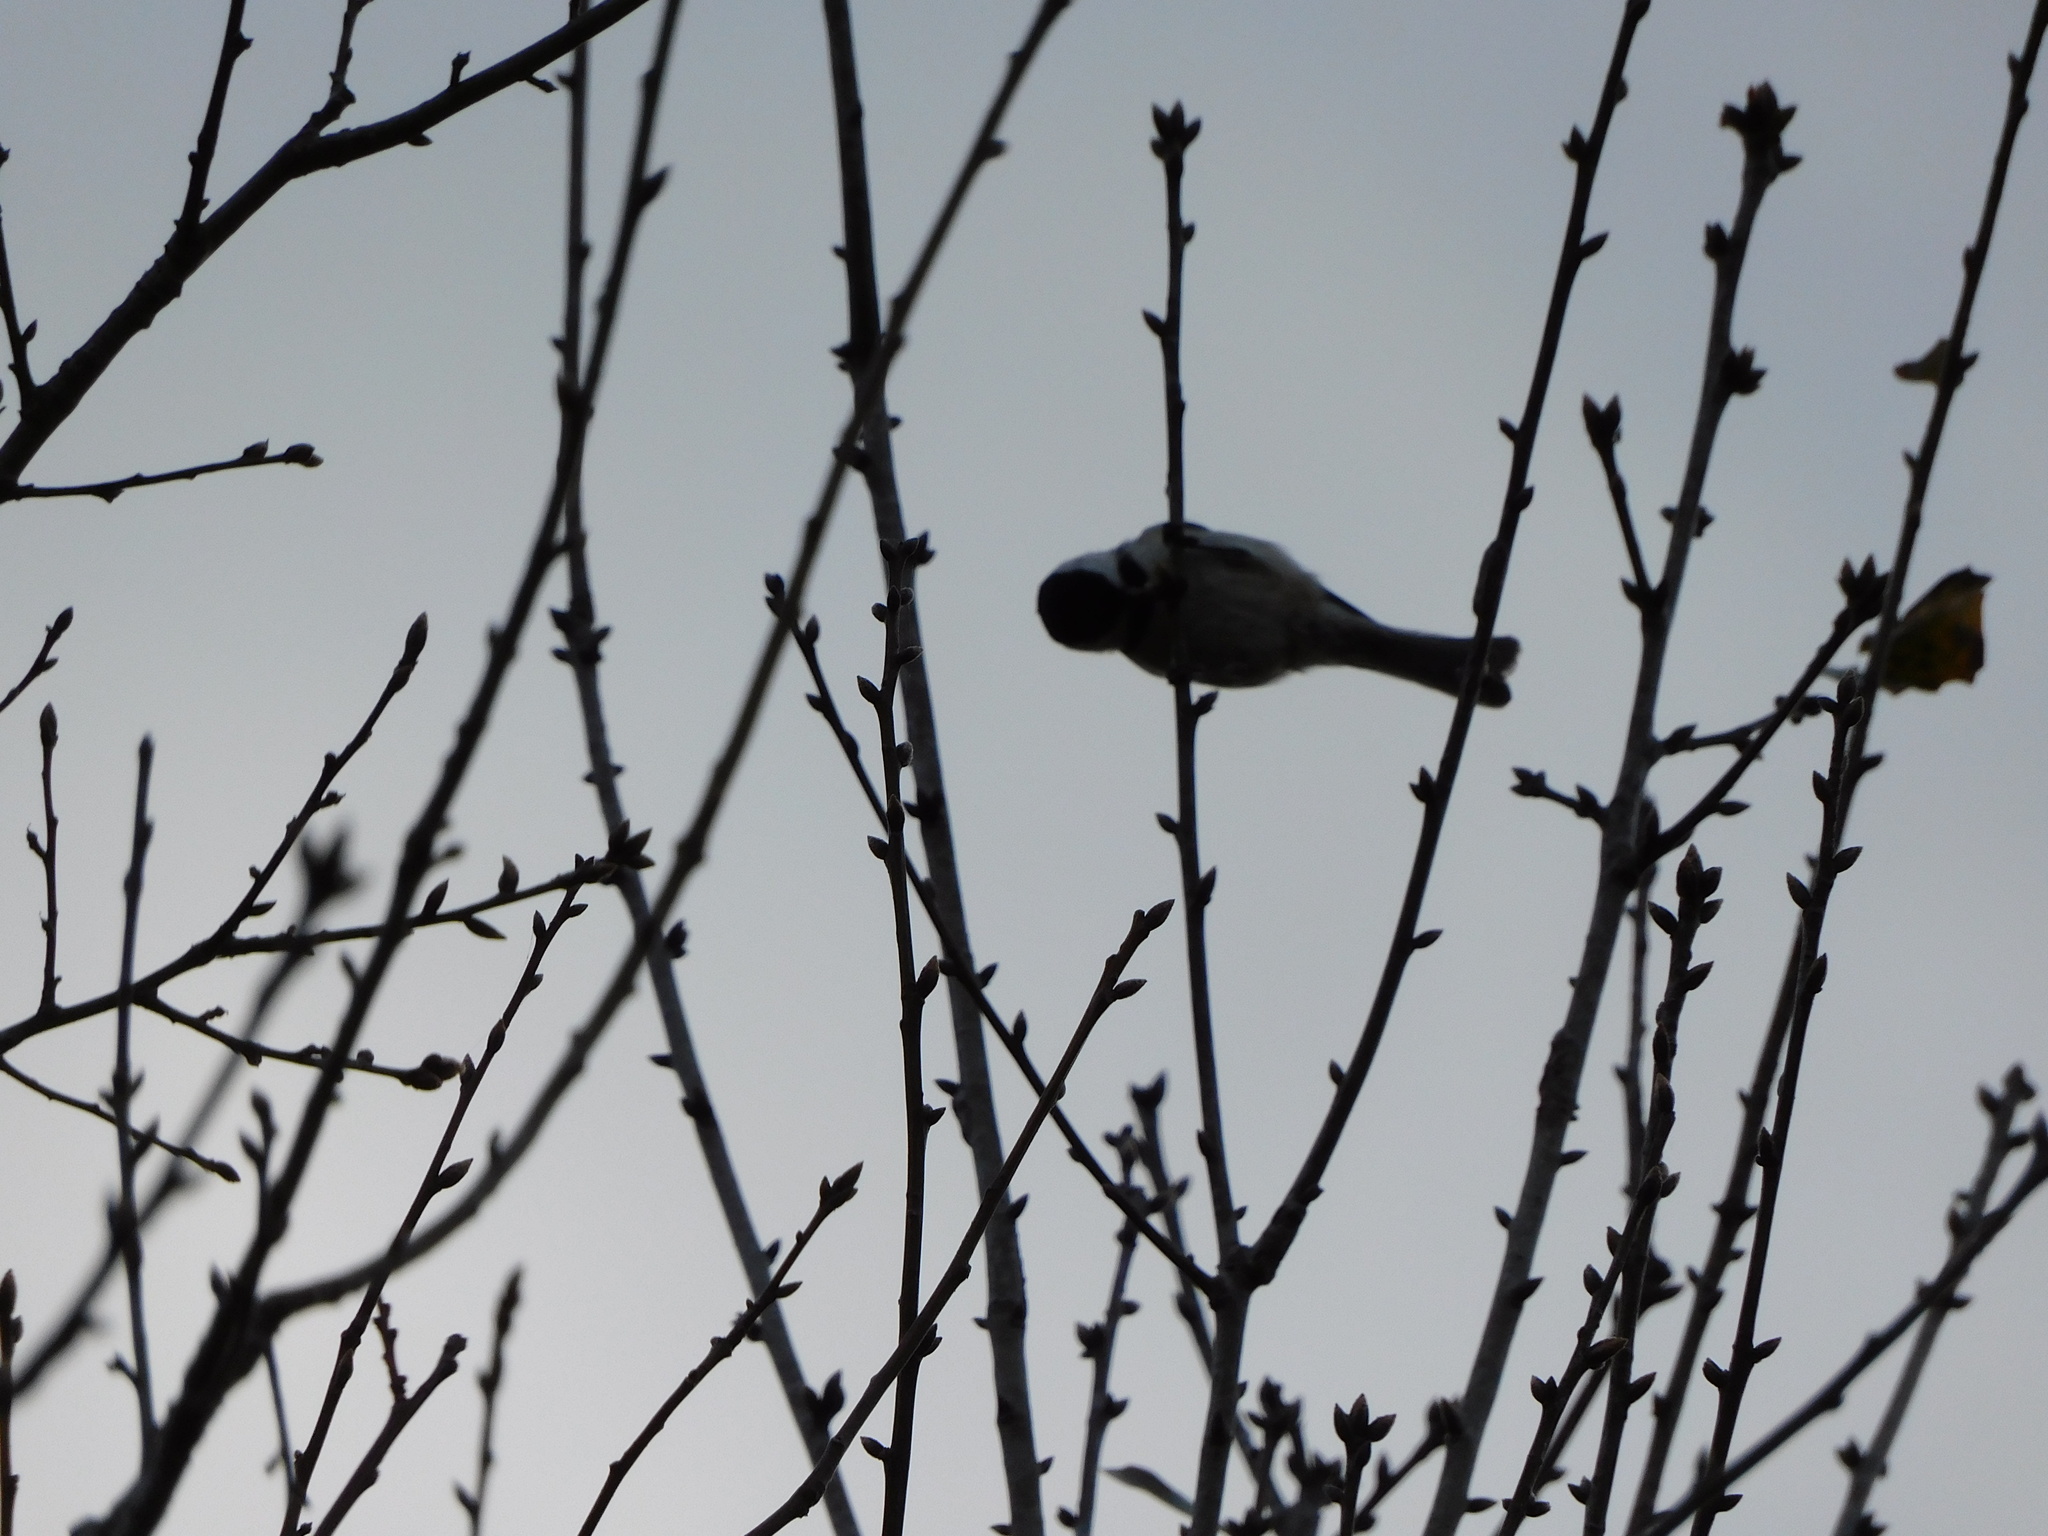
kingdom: Animalia
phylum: Chordata
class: Aves
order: Passeriformes
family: Paridae
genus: Poecile
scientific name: Poecile carolinensis
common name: Carolina chickadee
